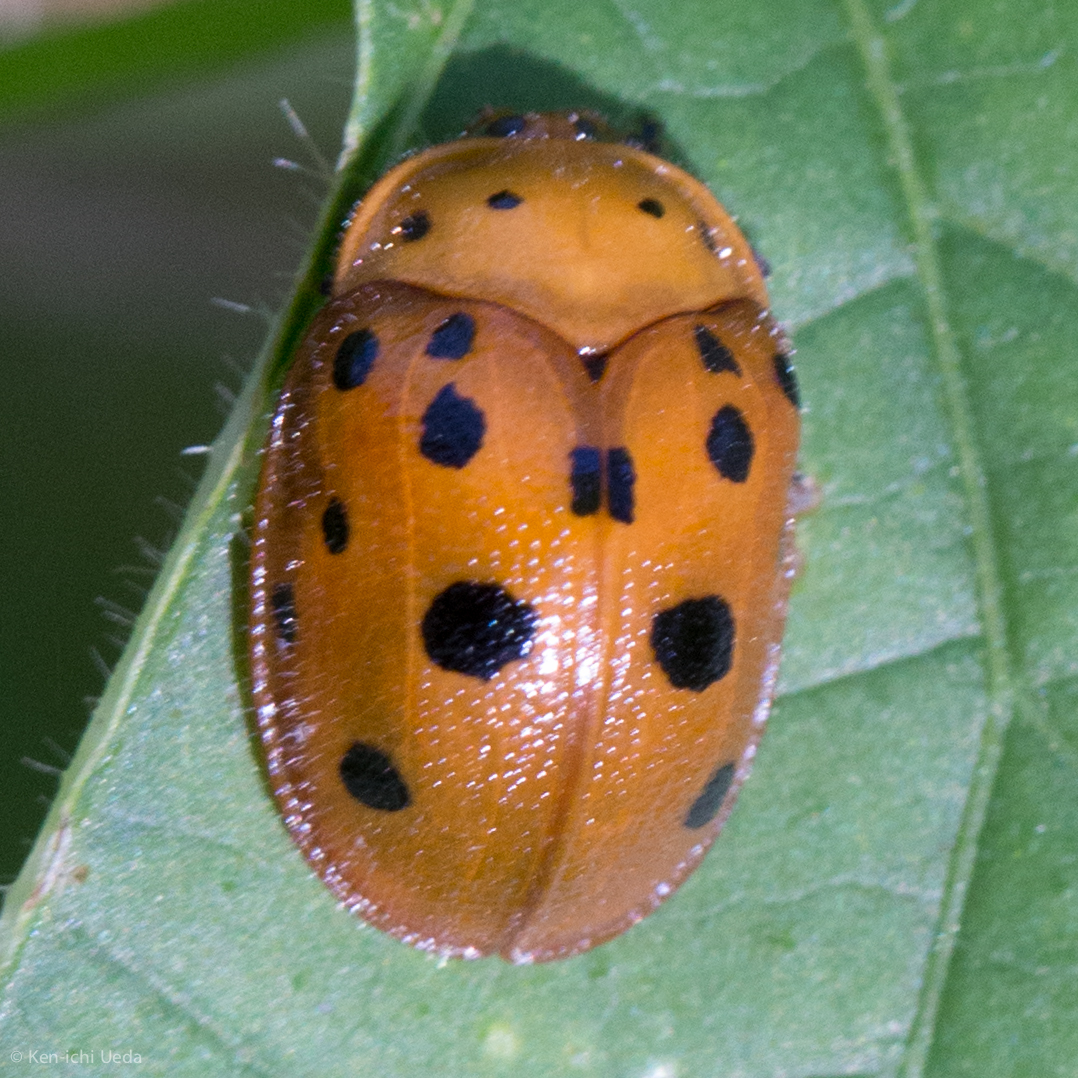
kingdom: Animalia
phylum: Arthropoda
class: Insecta
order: Coleoptera
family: Chrysomelidae
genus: Chelymorpha
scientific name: Chelymorpha phytophagica
